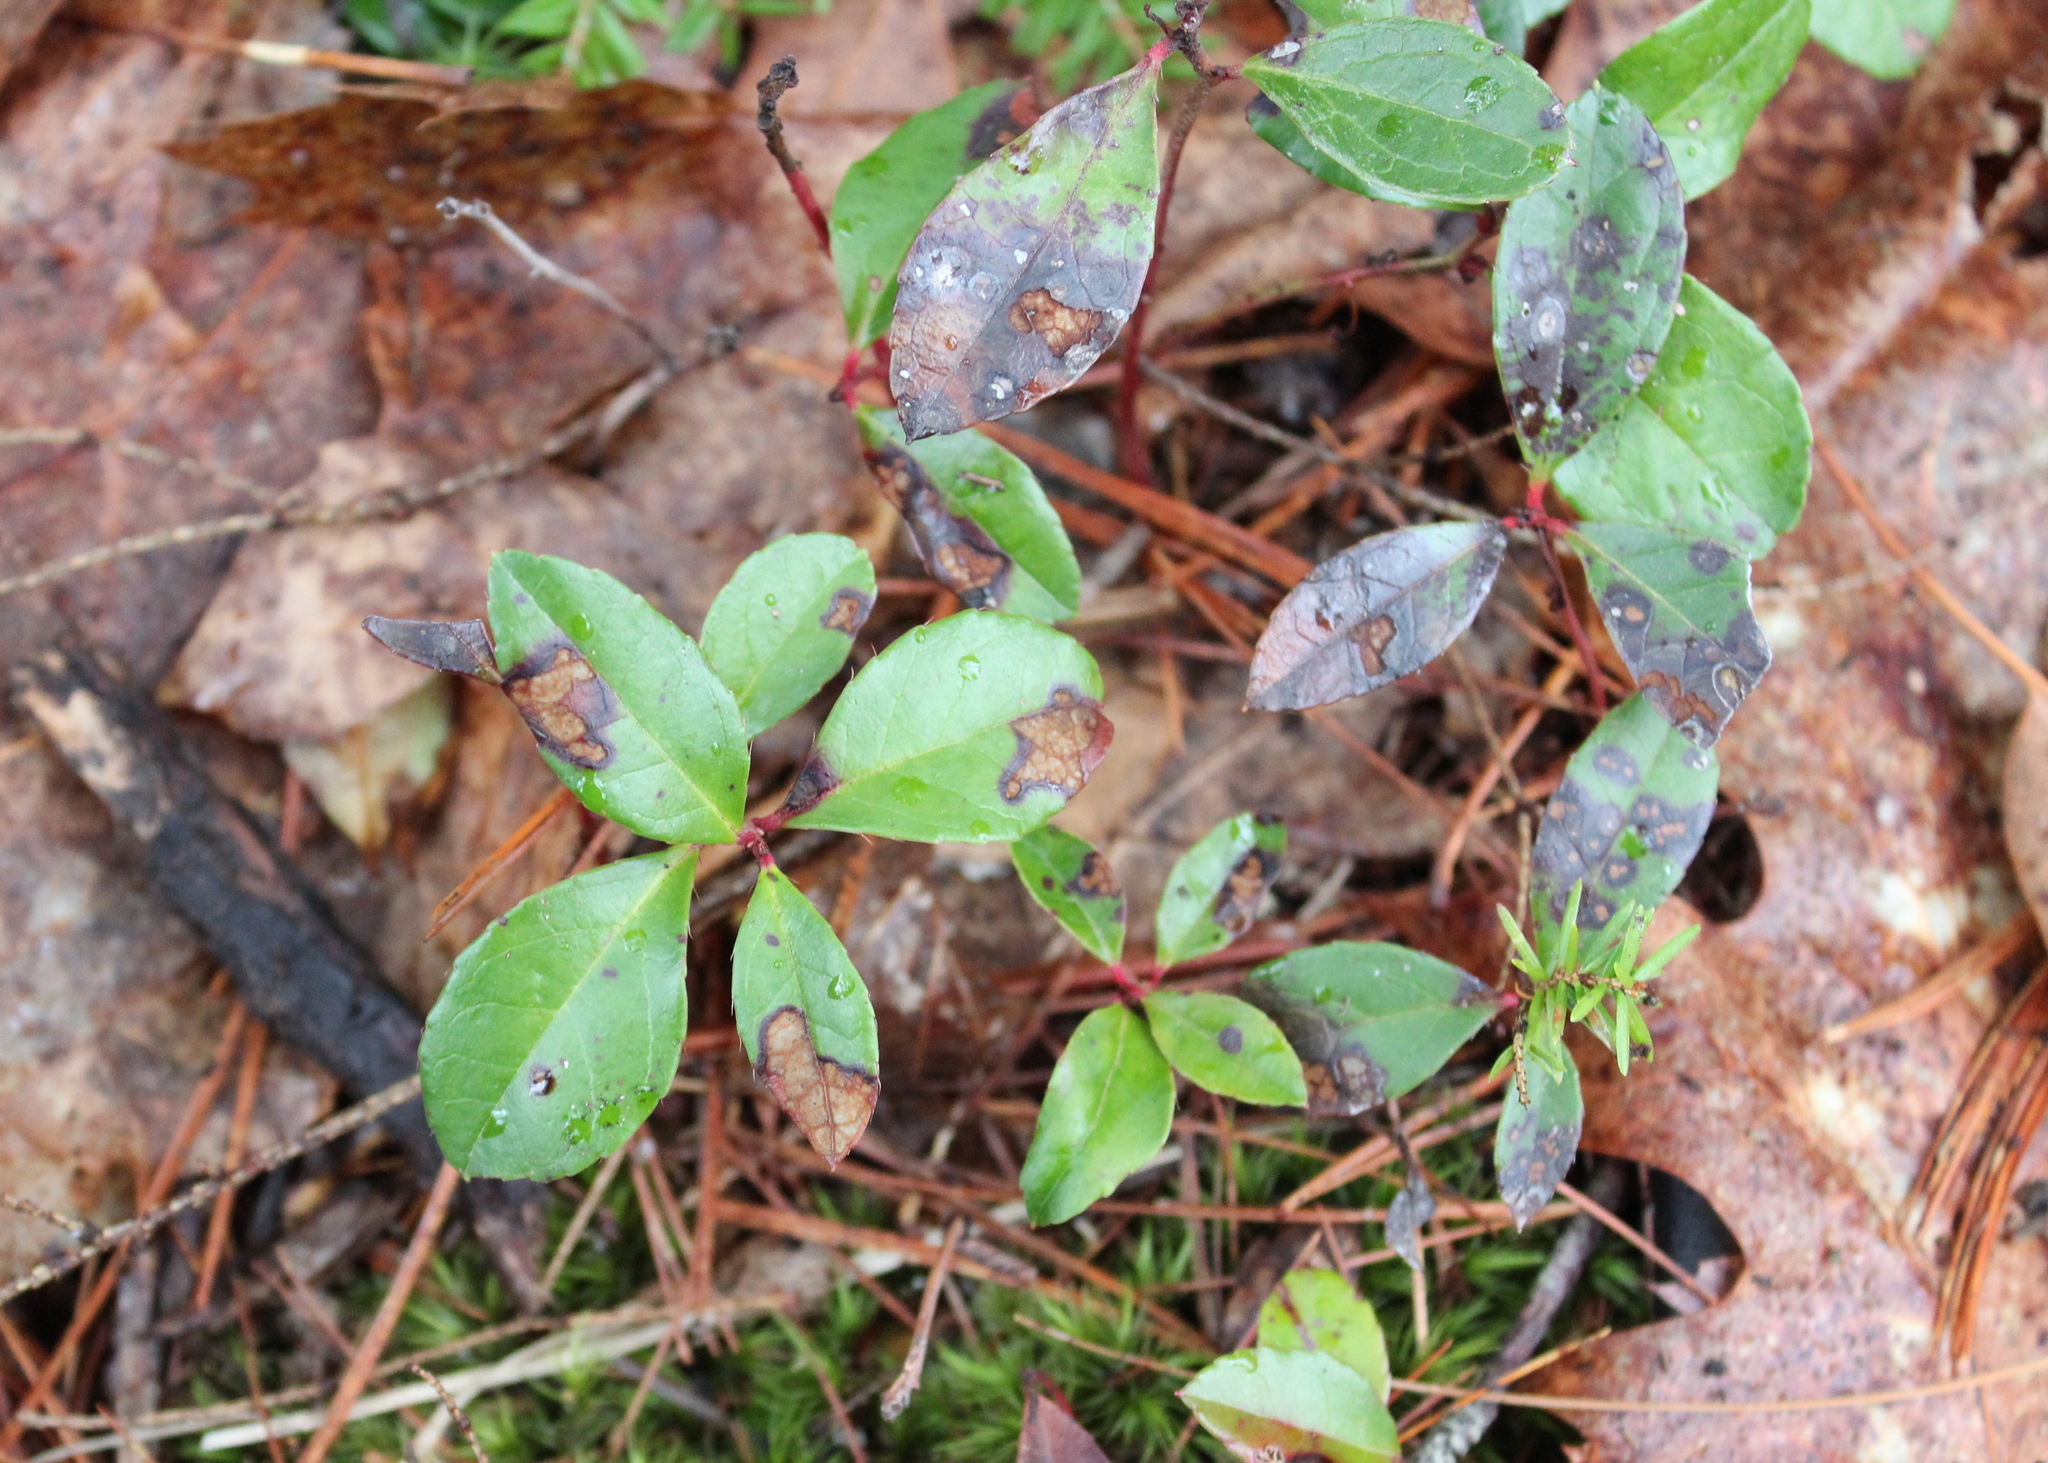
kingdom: Plantae
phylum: Tracheophyta
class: Magnoliopsida
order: Ericales
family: Ericaceae
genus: Gaultheria
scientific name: Gaultheria procumbens
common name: Checkerberry
